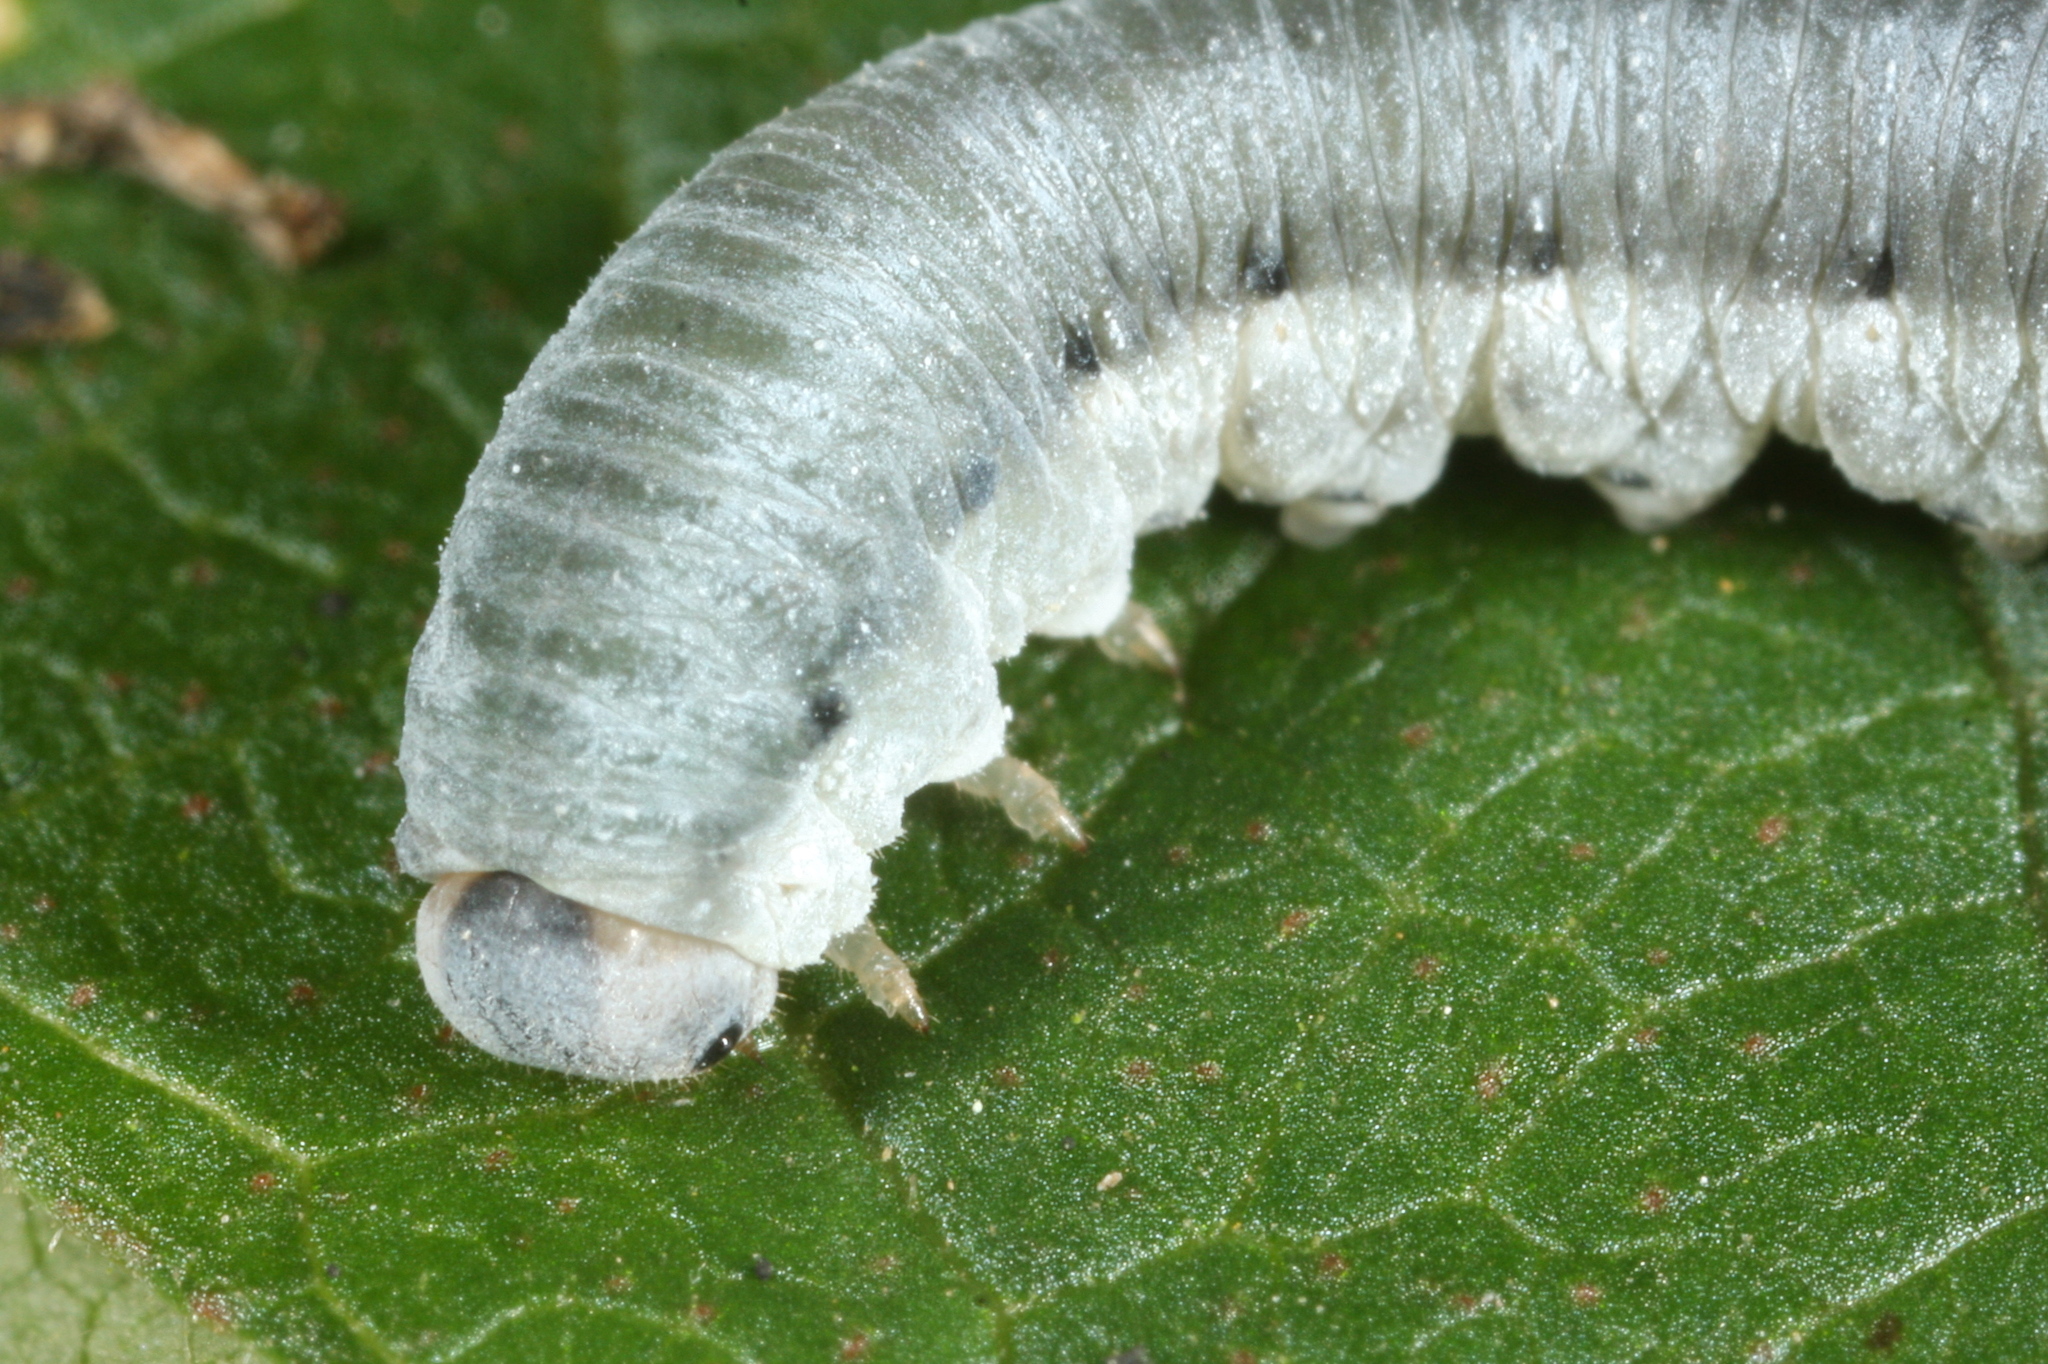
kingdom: Animalia
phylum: Arthropoda
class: Insecta
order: Hymenoptera
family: Tenthredinidae
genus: Monostegia
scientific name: Monostegia abdominalis
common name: Tenthredid wasp
